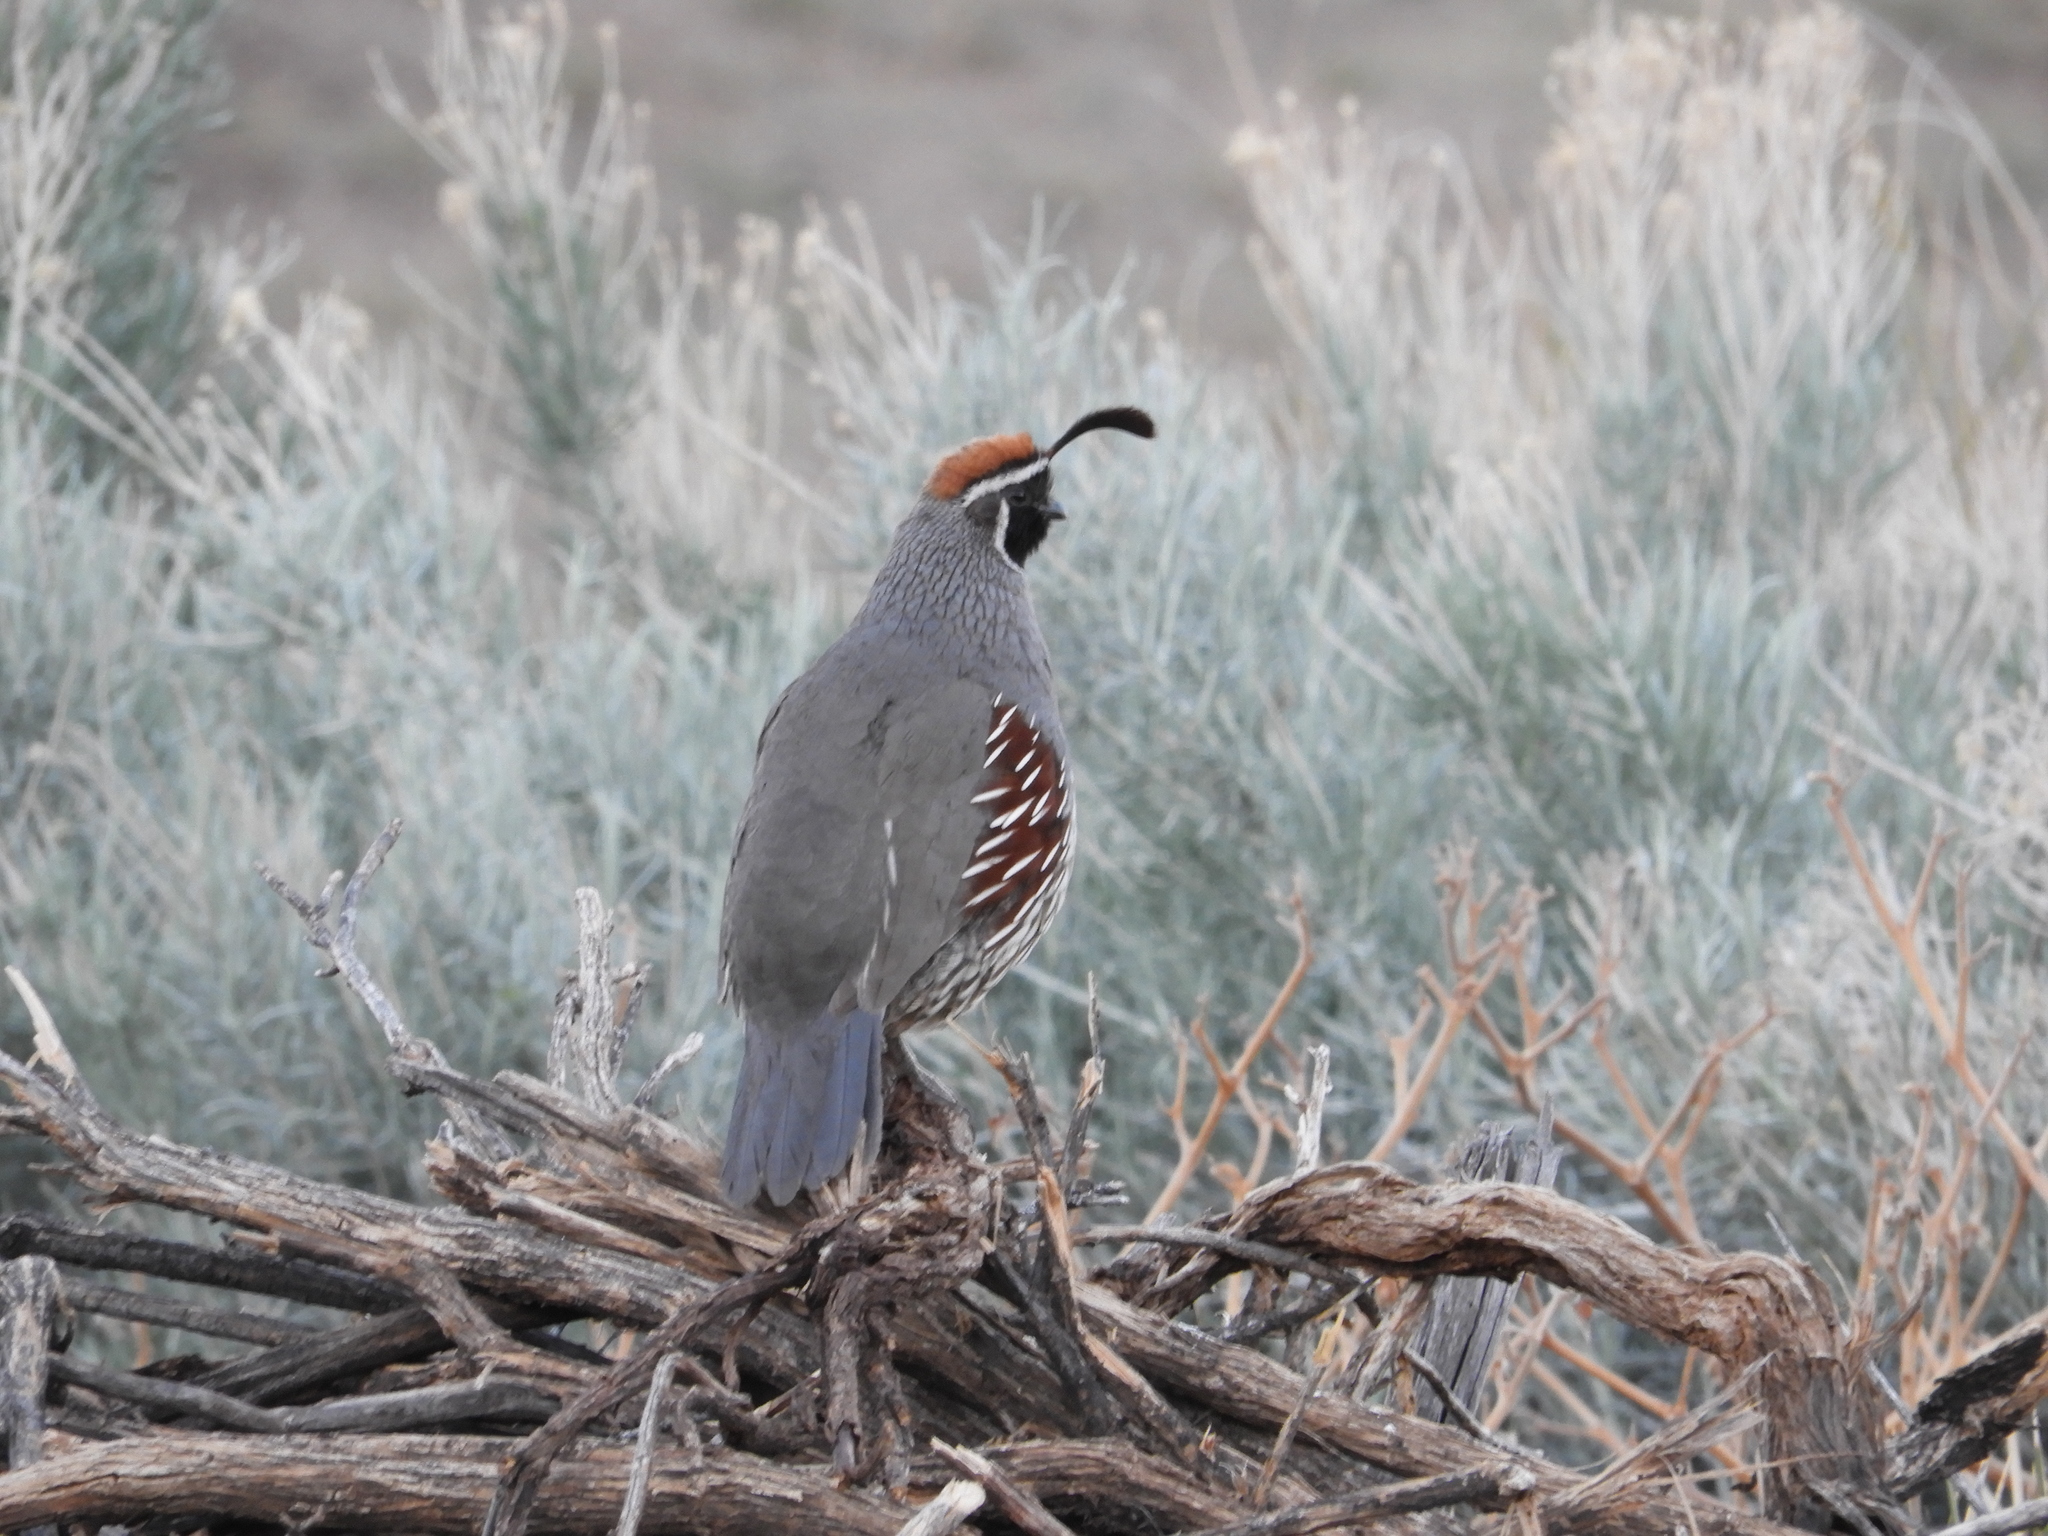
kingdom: Animalia
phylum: Chordata
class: Aves
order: Galliformes
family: Odontophoridae
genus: Callipepla
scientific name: Callipepla gambelii
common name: Gambel's quail
